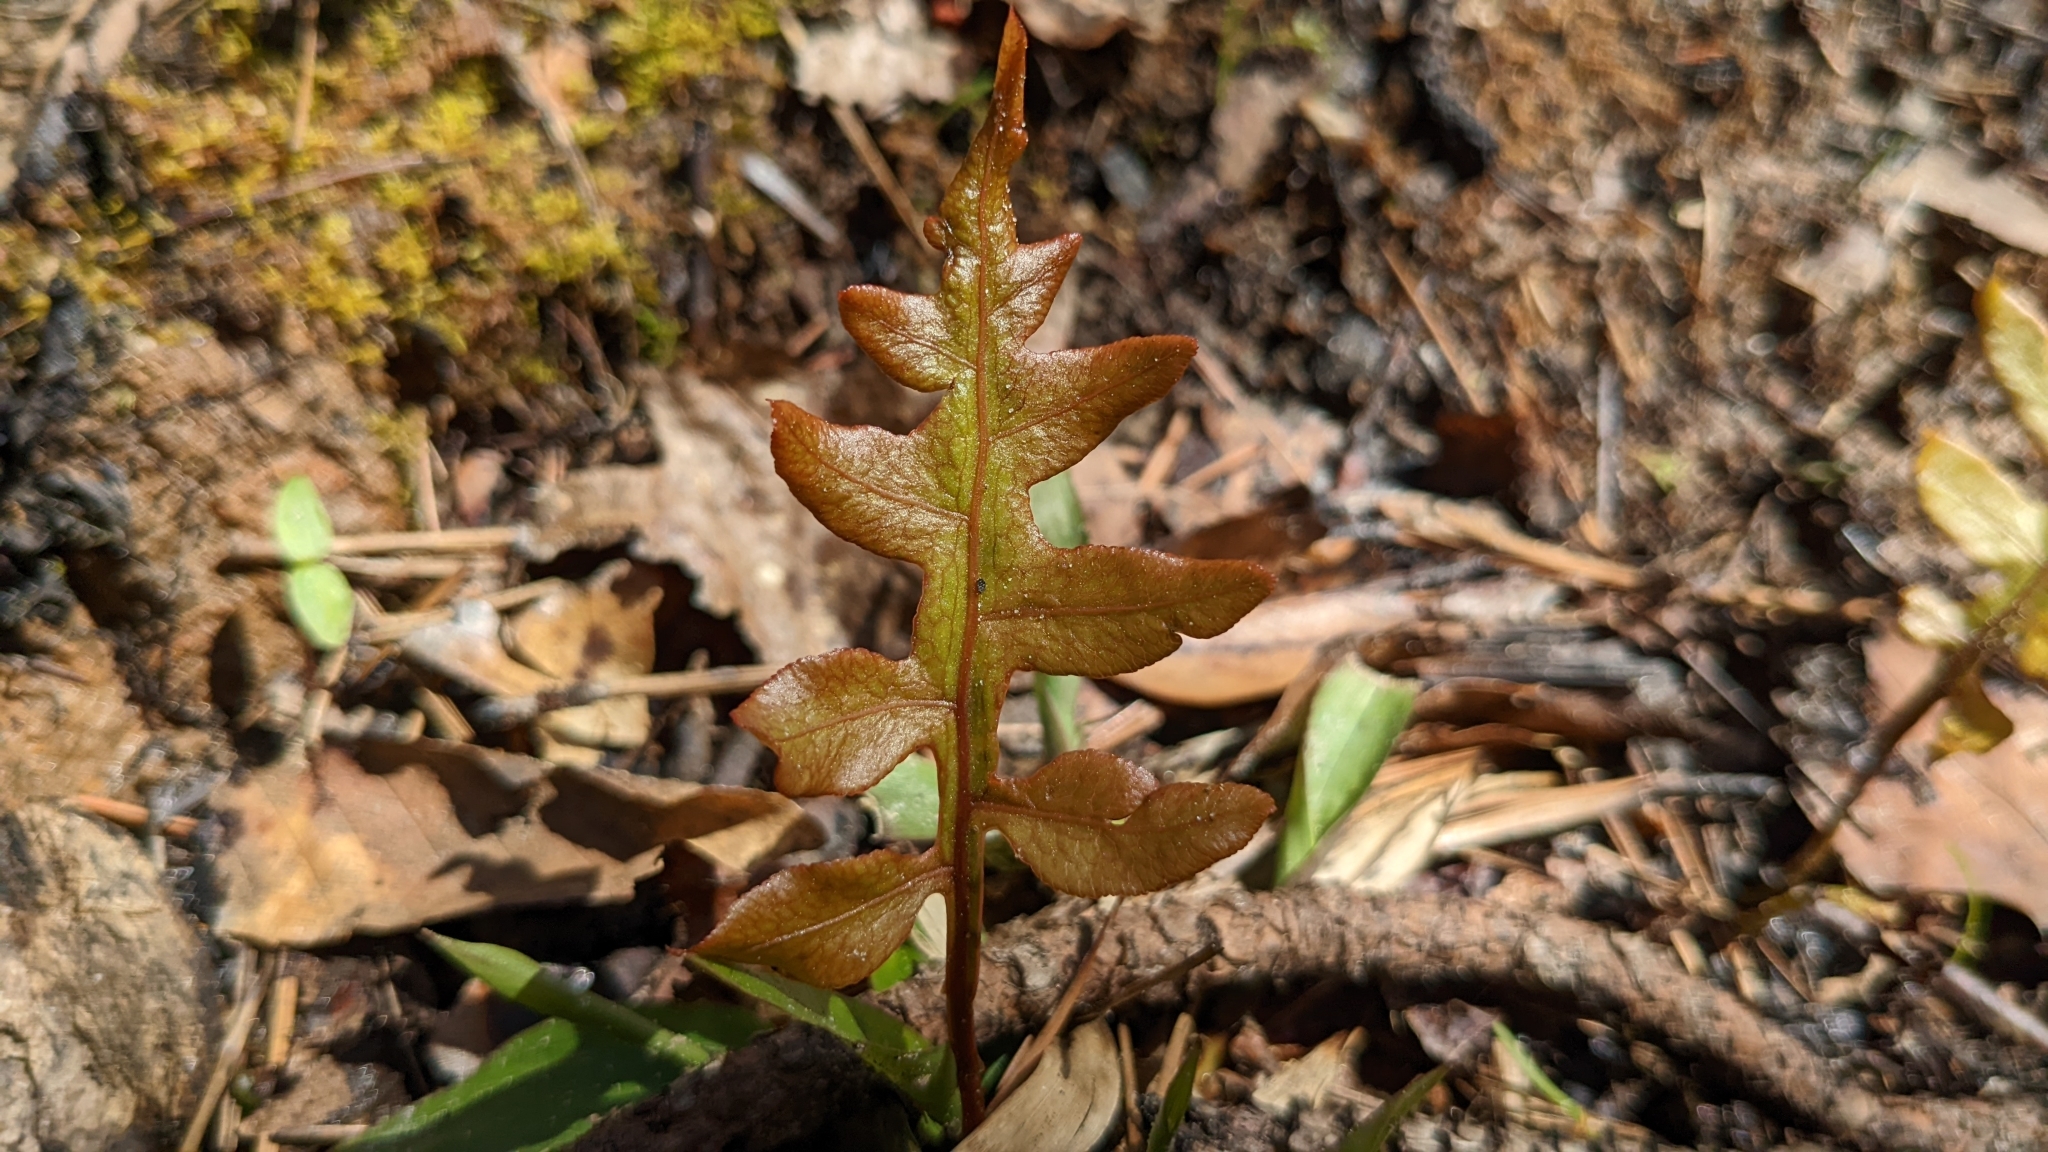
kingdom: Plantae
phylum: Tracheophyta
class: Polypodiopsida
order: Polypodiales
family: Blechnaceae
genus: Lorinseria
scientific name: Lorinseria areolata
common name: Dwarf chain fern
